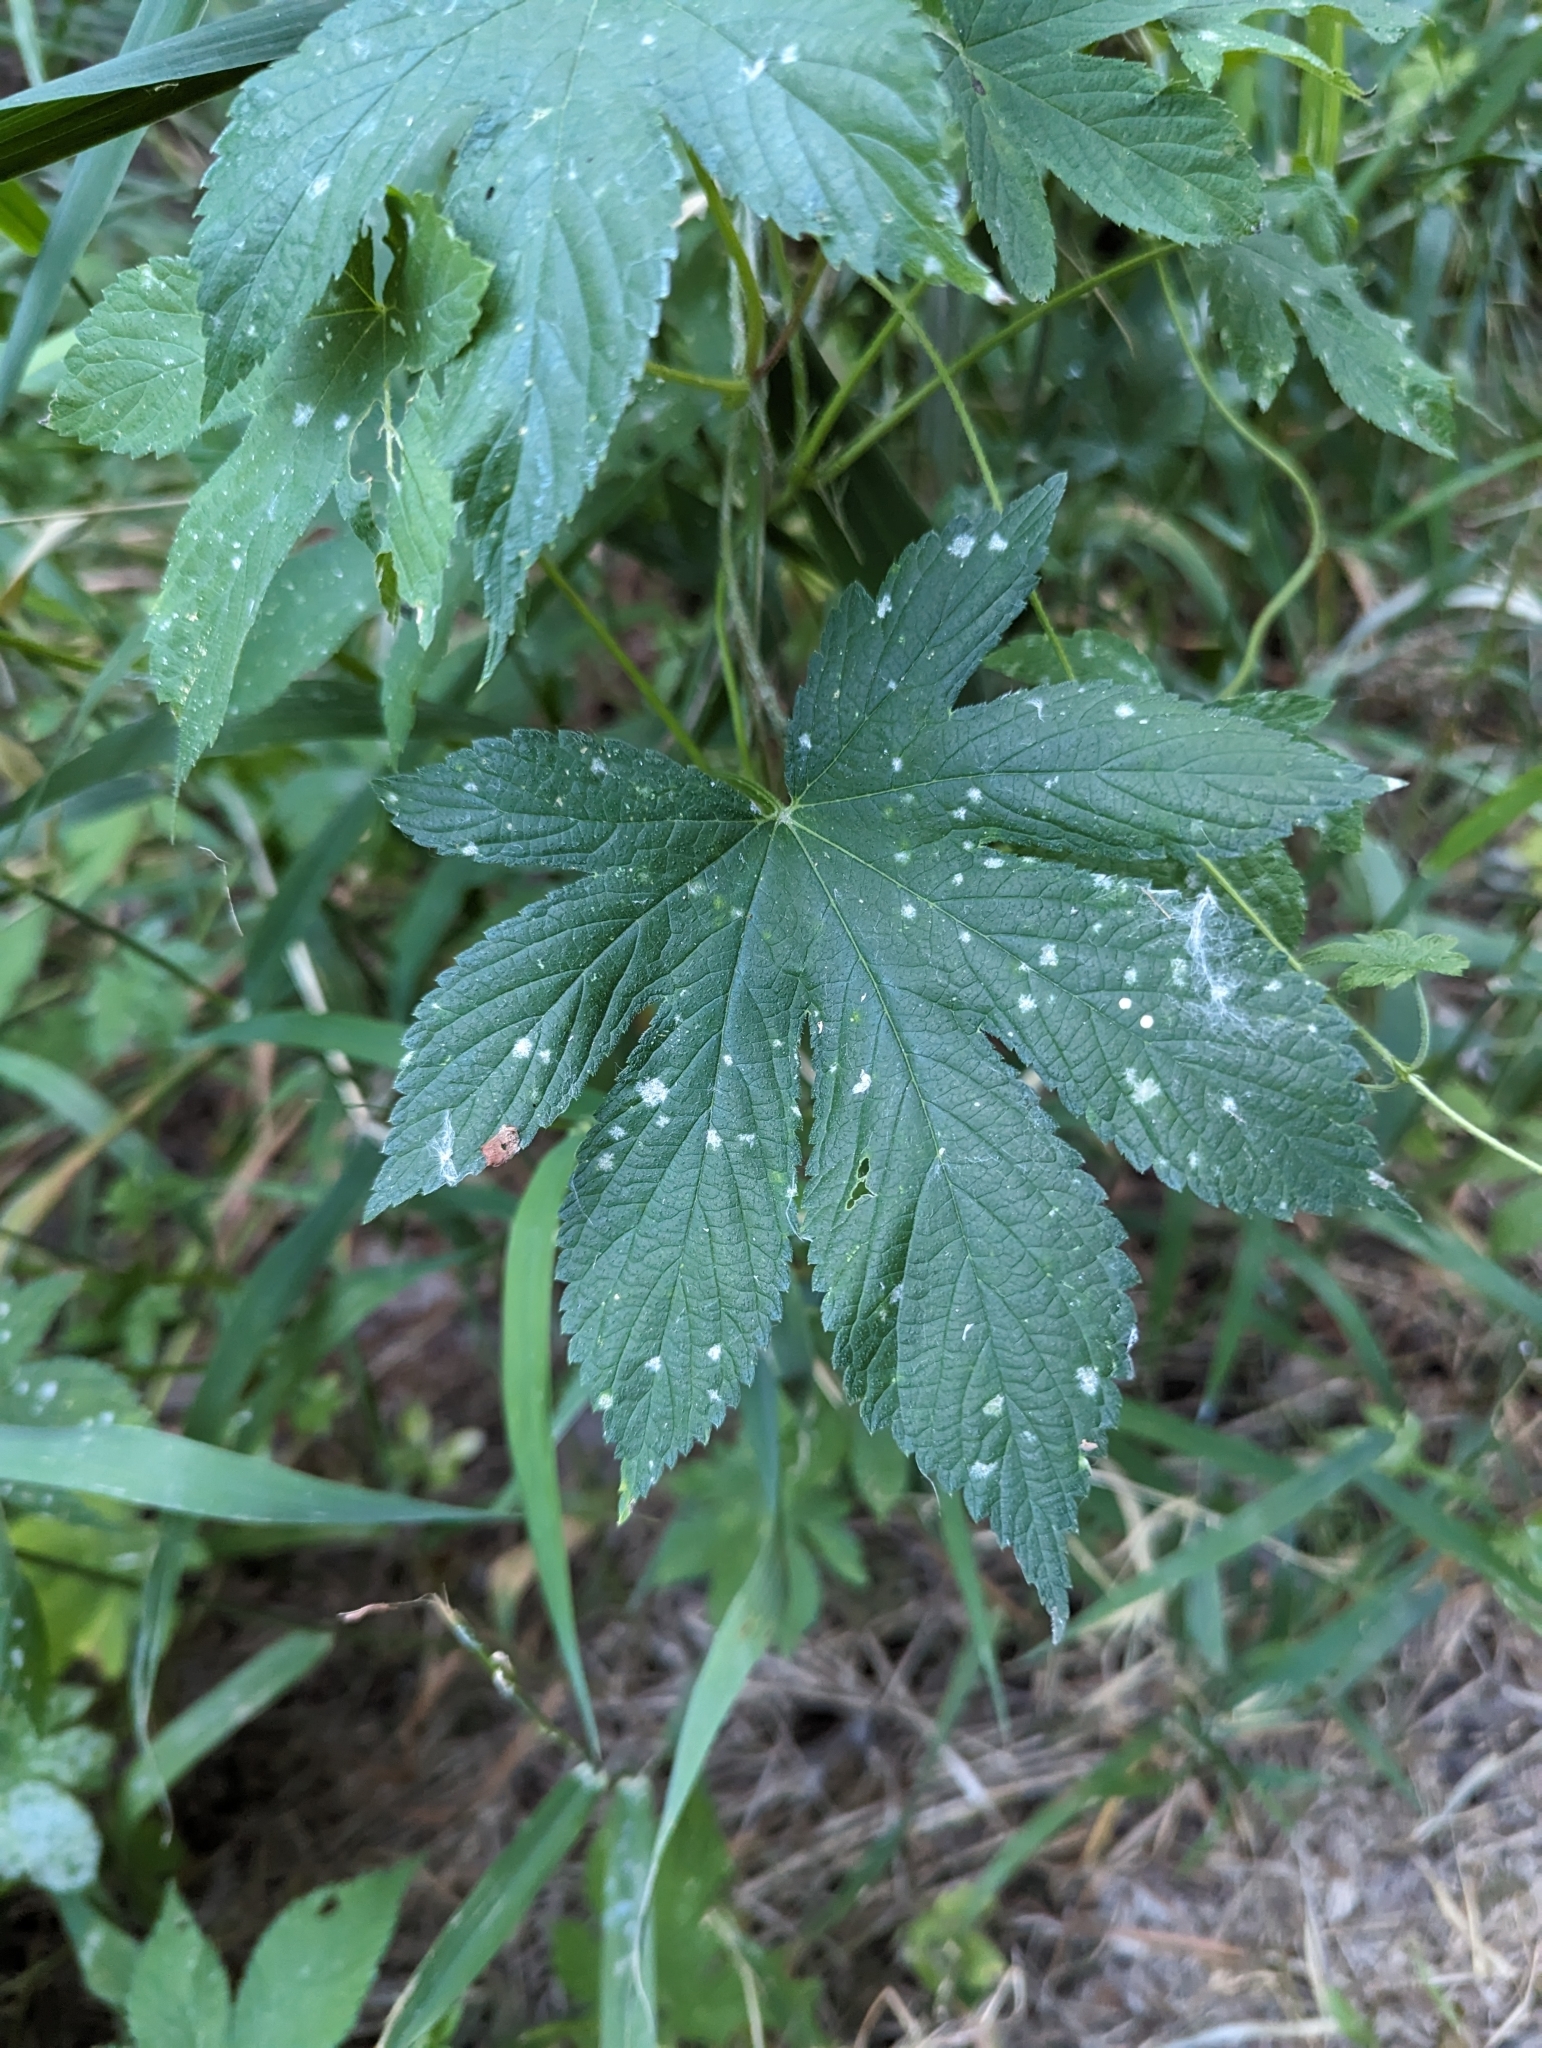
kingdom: Plantae
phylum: Tracheophyta
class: Magnoliopsida
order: Rosales
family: Cannabaceae
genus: Humulus
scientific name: Humulus scandens
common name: Japanese hop
